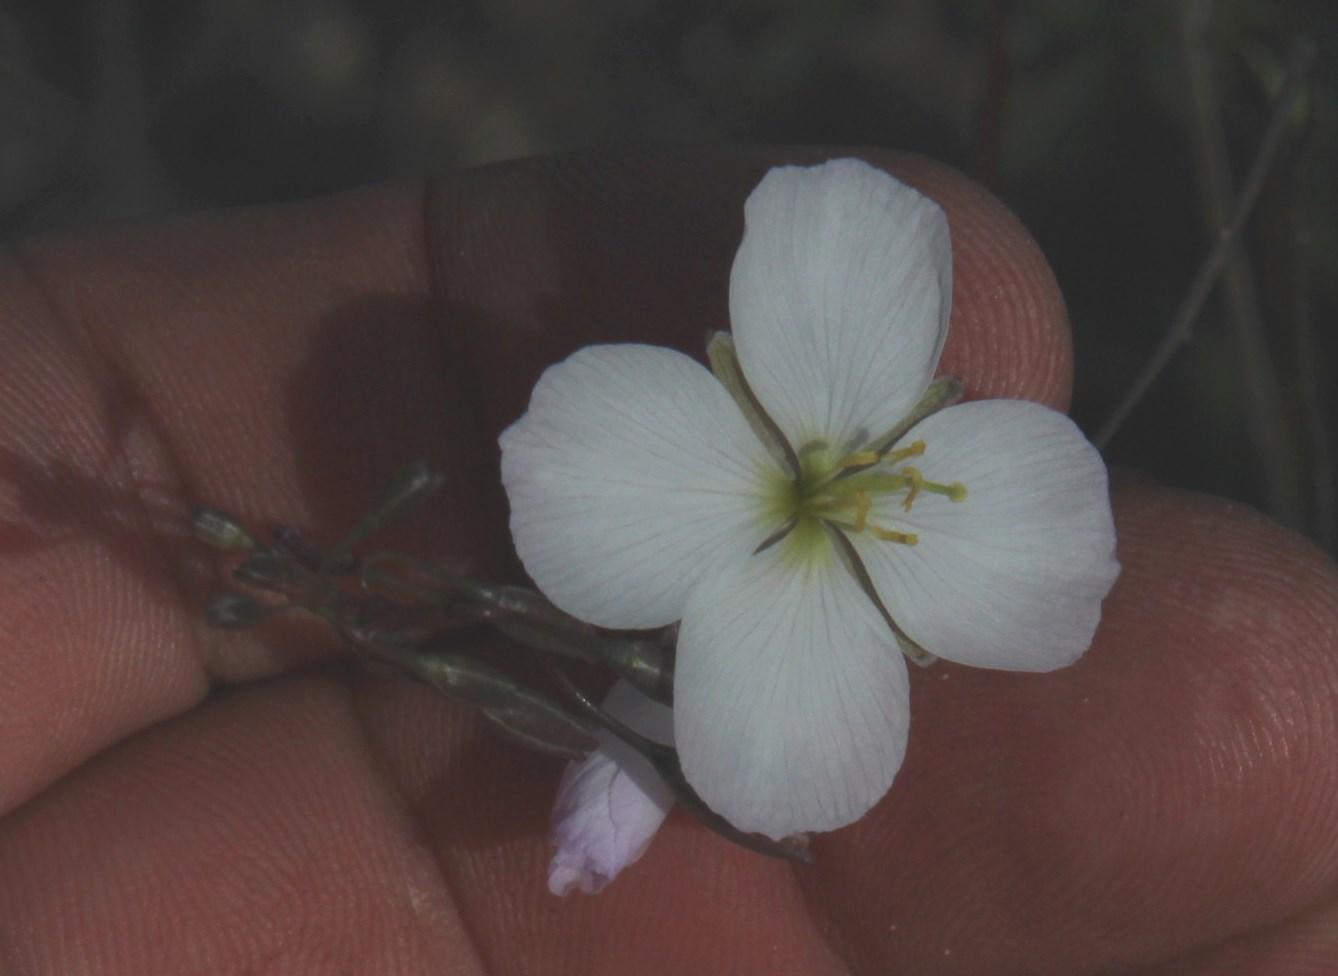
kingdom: Plantae
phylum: Tracheophyta
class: Magnoliopsida
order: Brassicales
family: Brassicaceae
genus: Heliophila
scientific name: Heliophila carnosa
